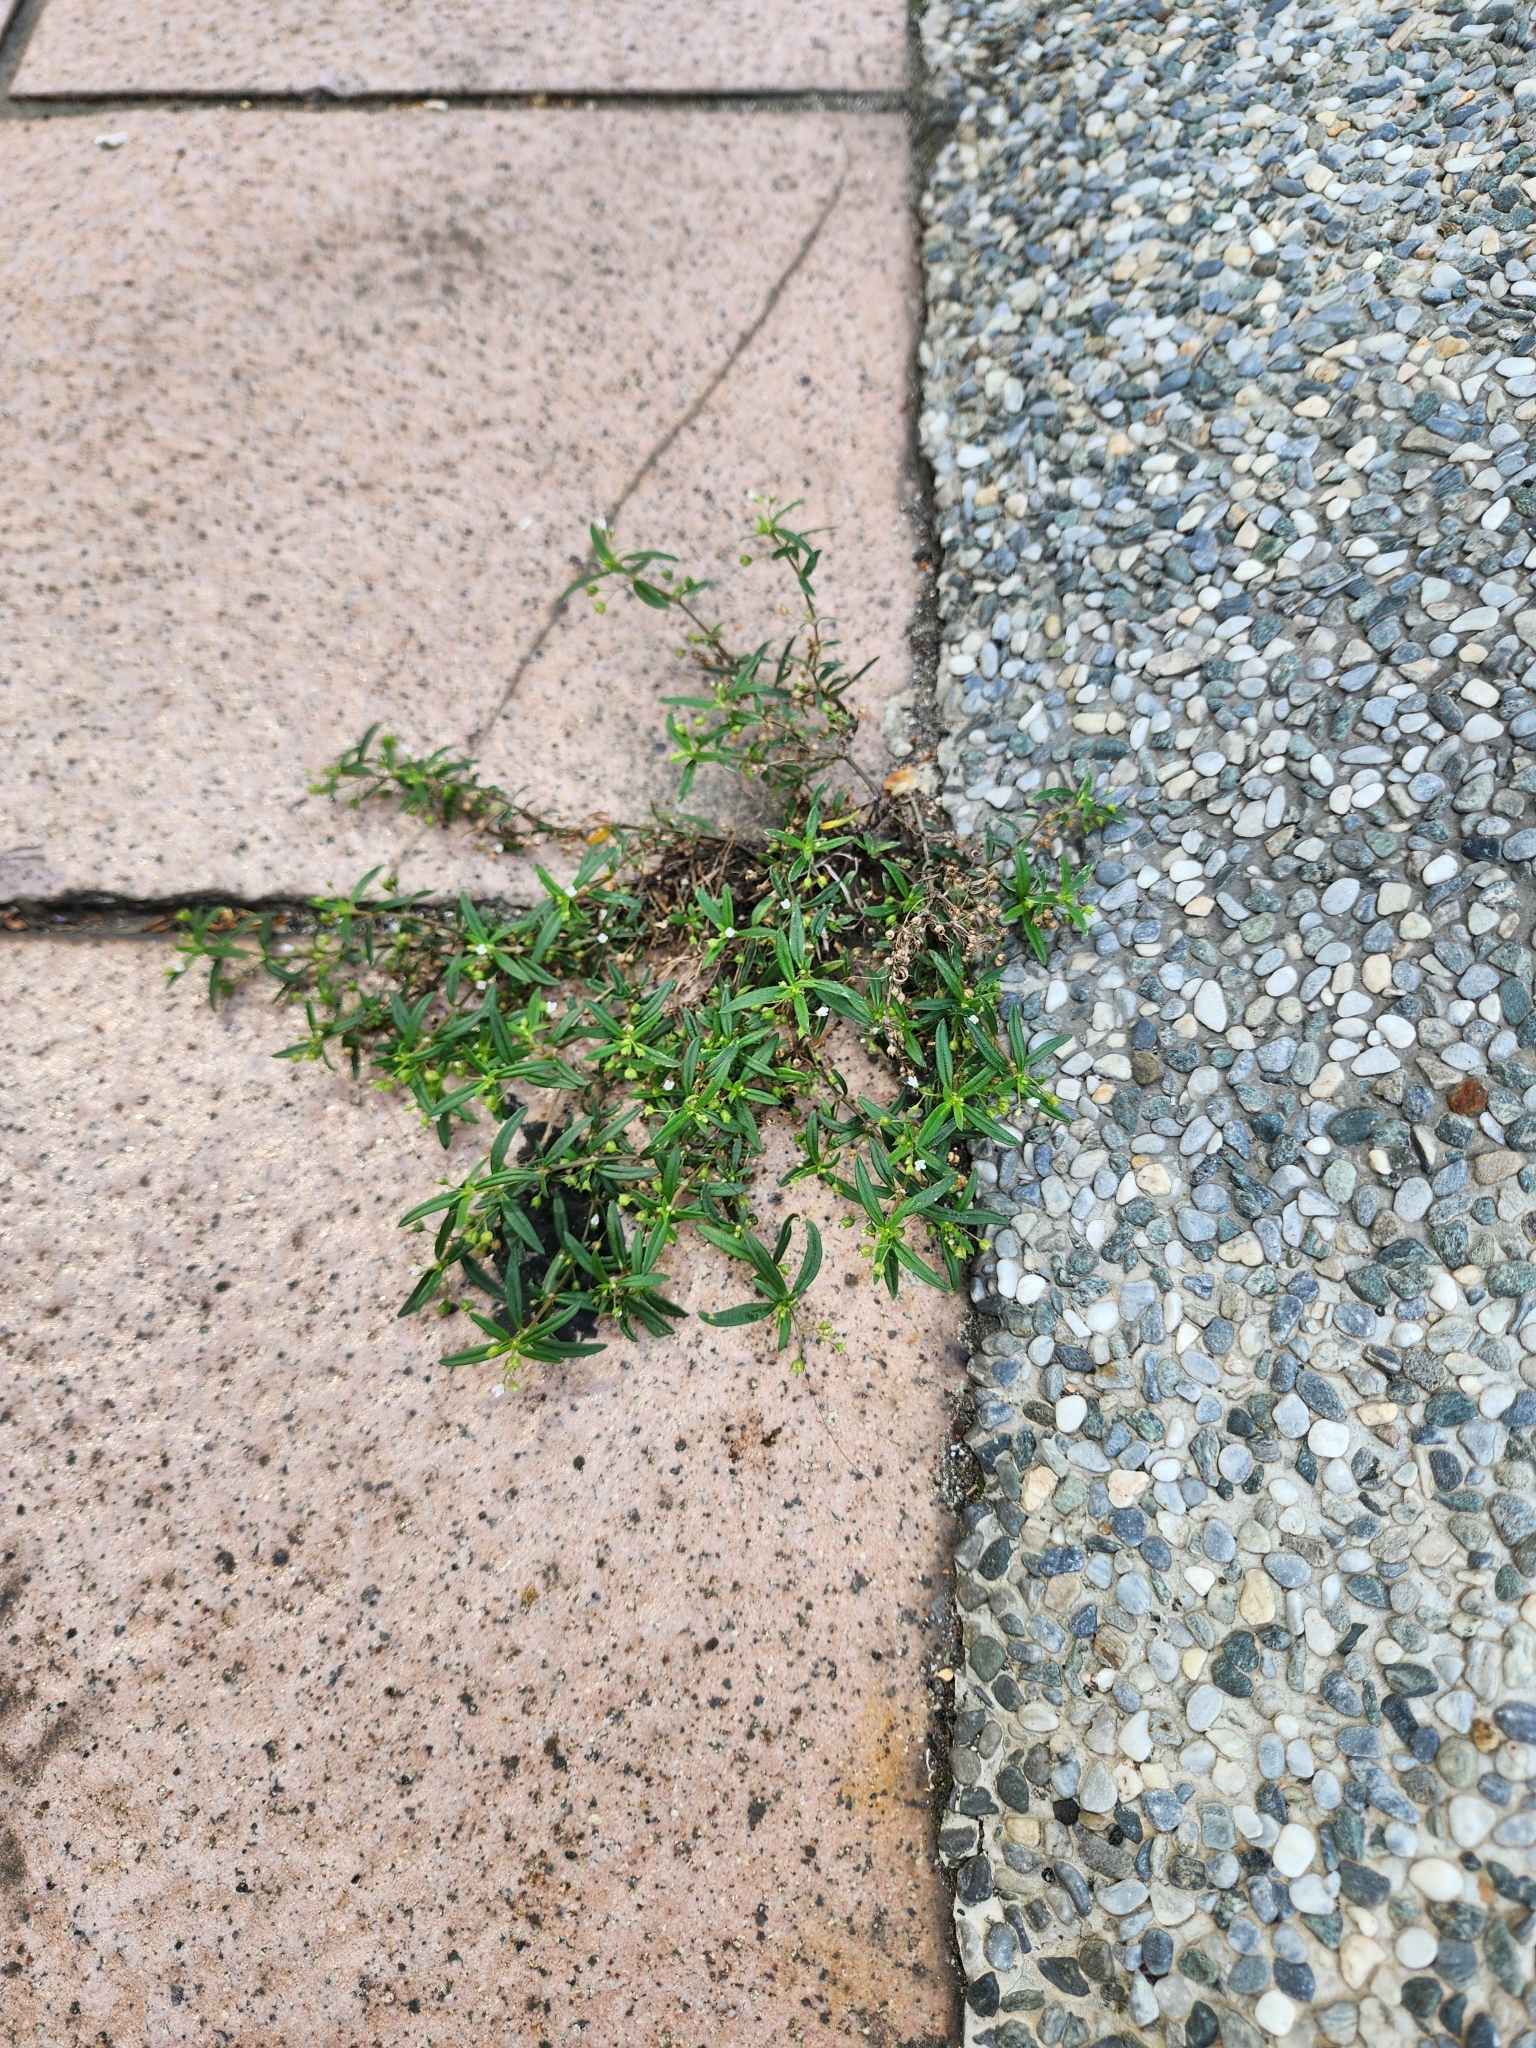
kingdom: Plantae
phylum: Tracheophyta
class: Magnoliopsida
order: Gentianales
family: Rubiaceae
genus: Oldenlandia
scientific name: Oldenlandia corymbosa
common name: Flat-top mille graines
